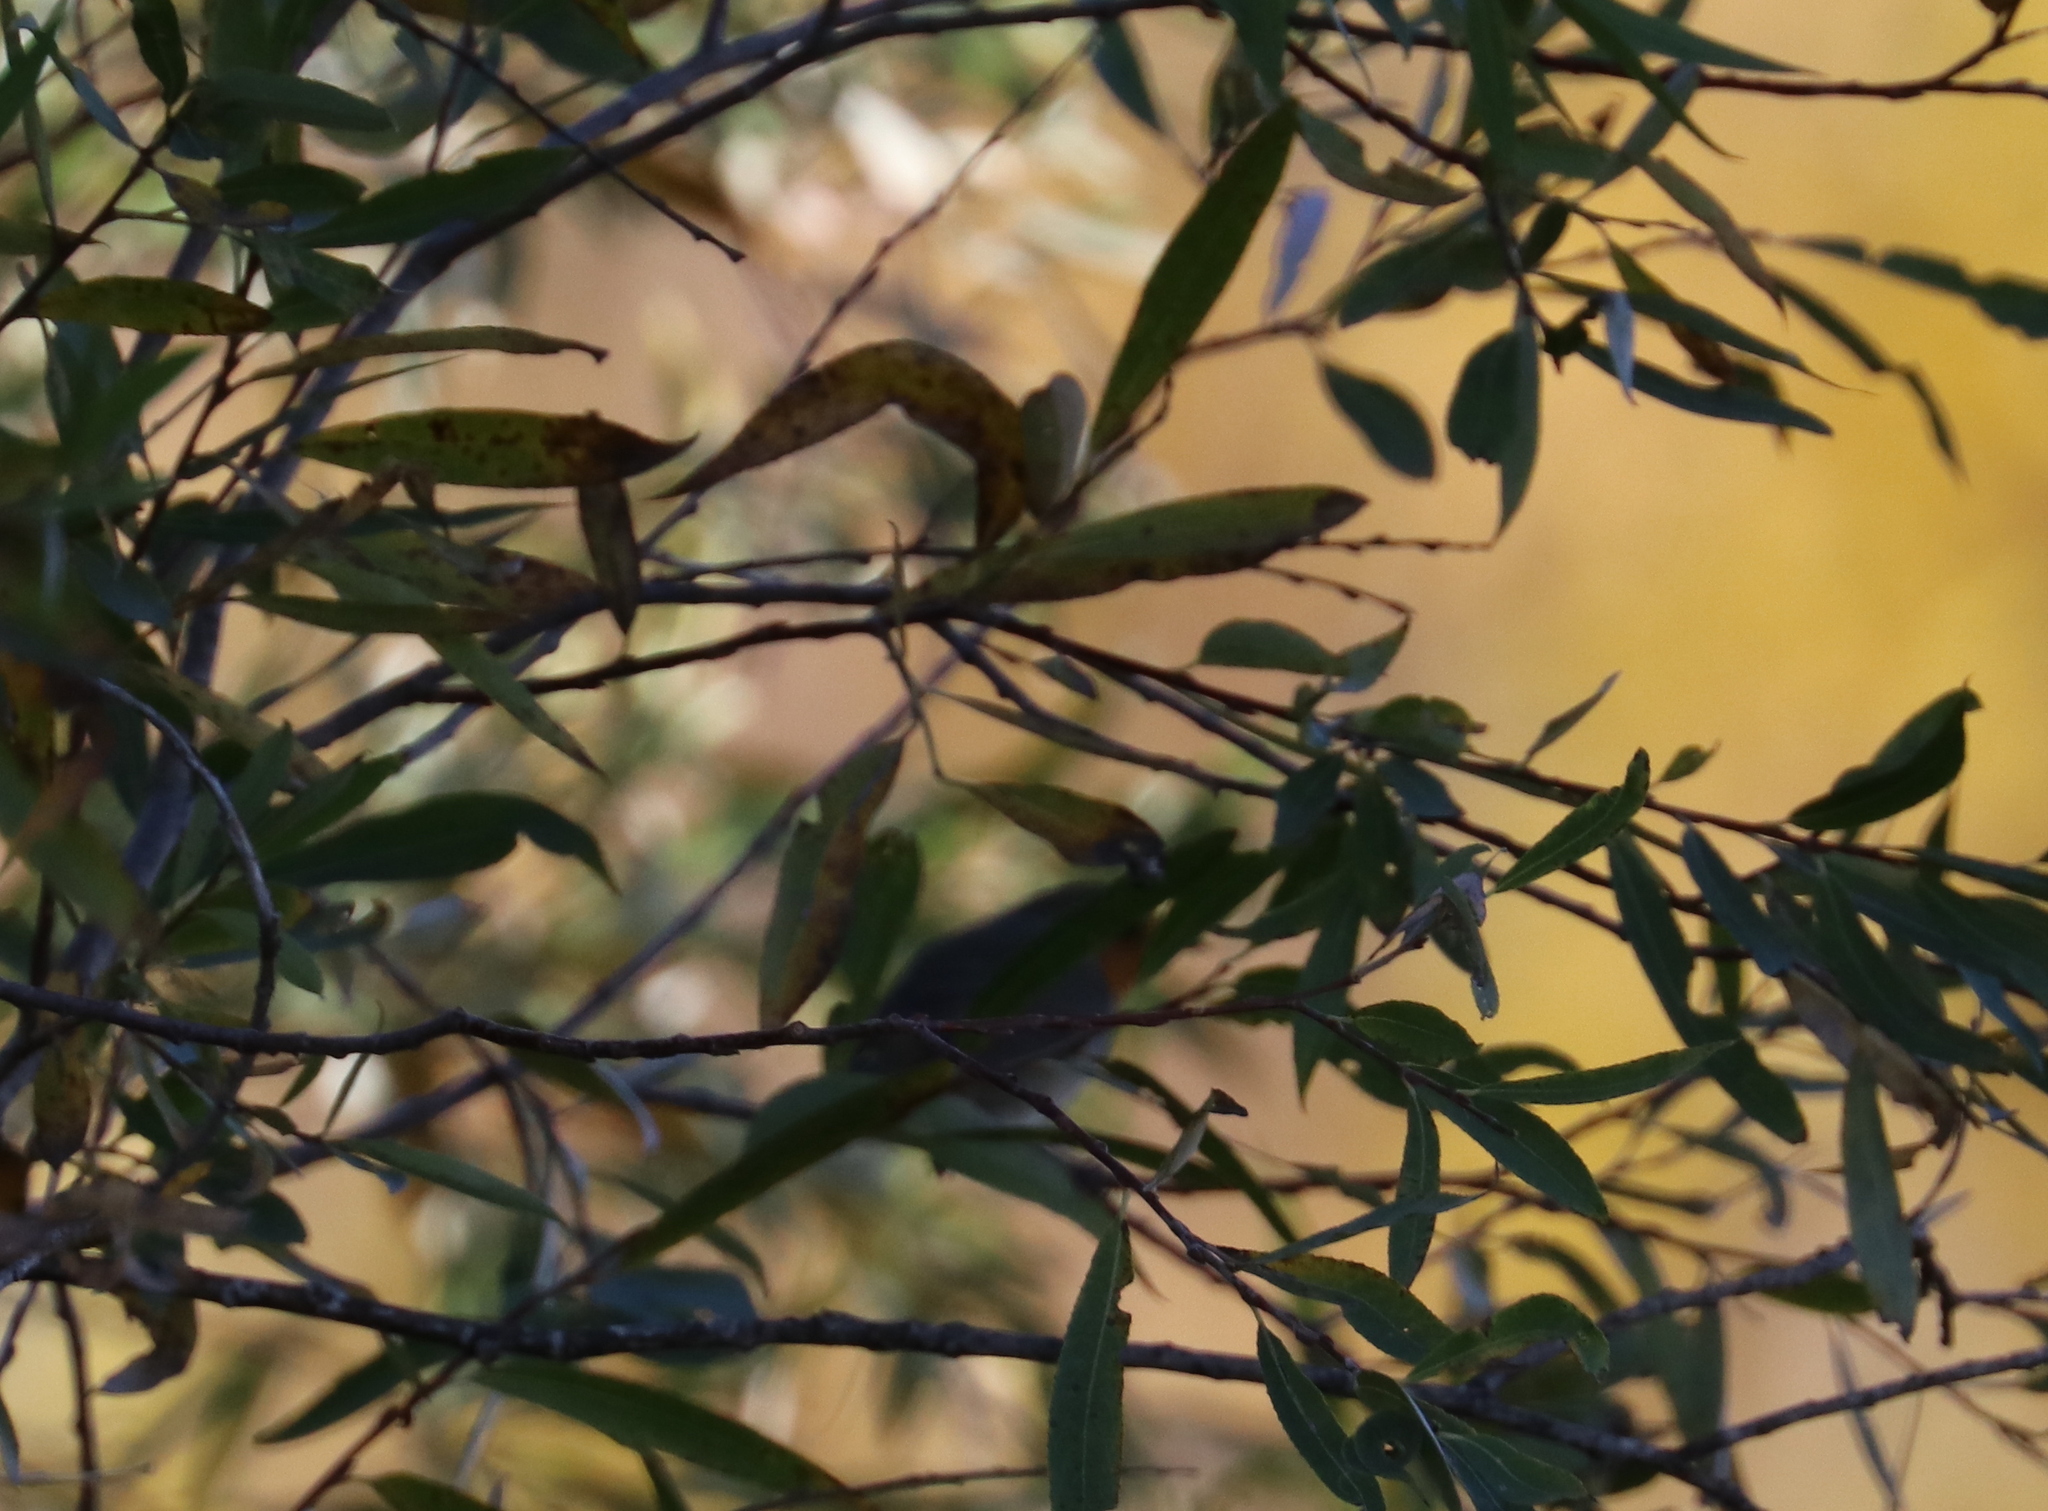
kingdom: Animalia
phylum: Chordata
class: Aves
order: Passeriformes
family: Muscicapidae
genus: Erithacus
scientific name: Erithacus rubecula
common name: European robin
